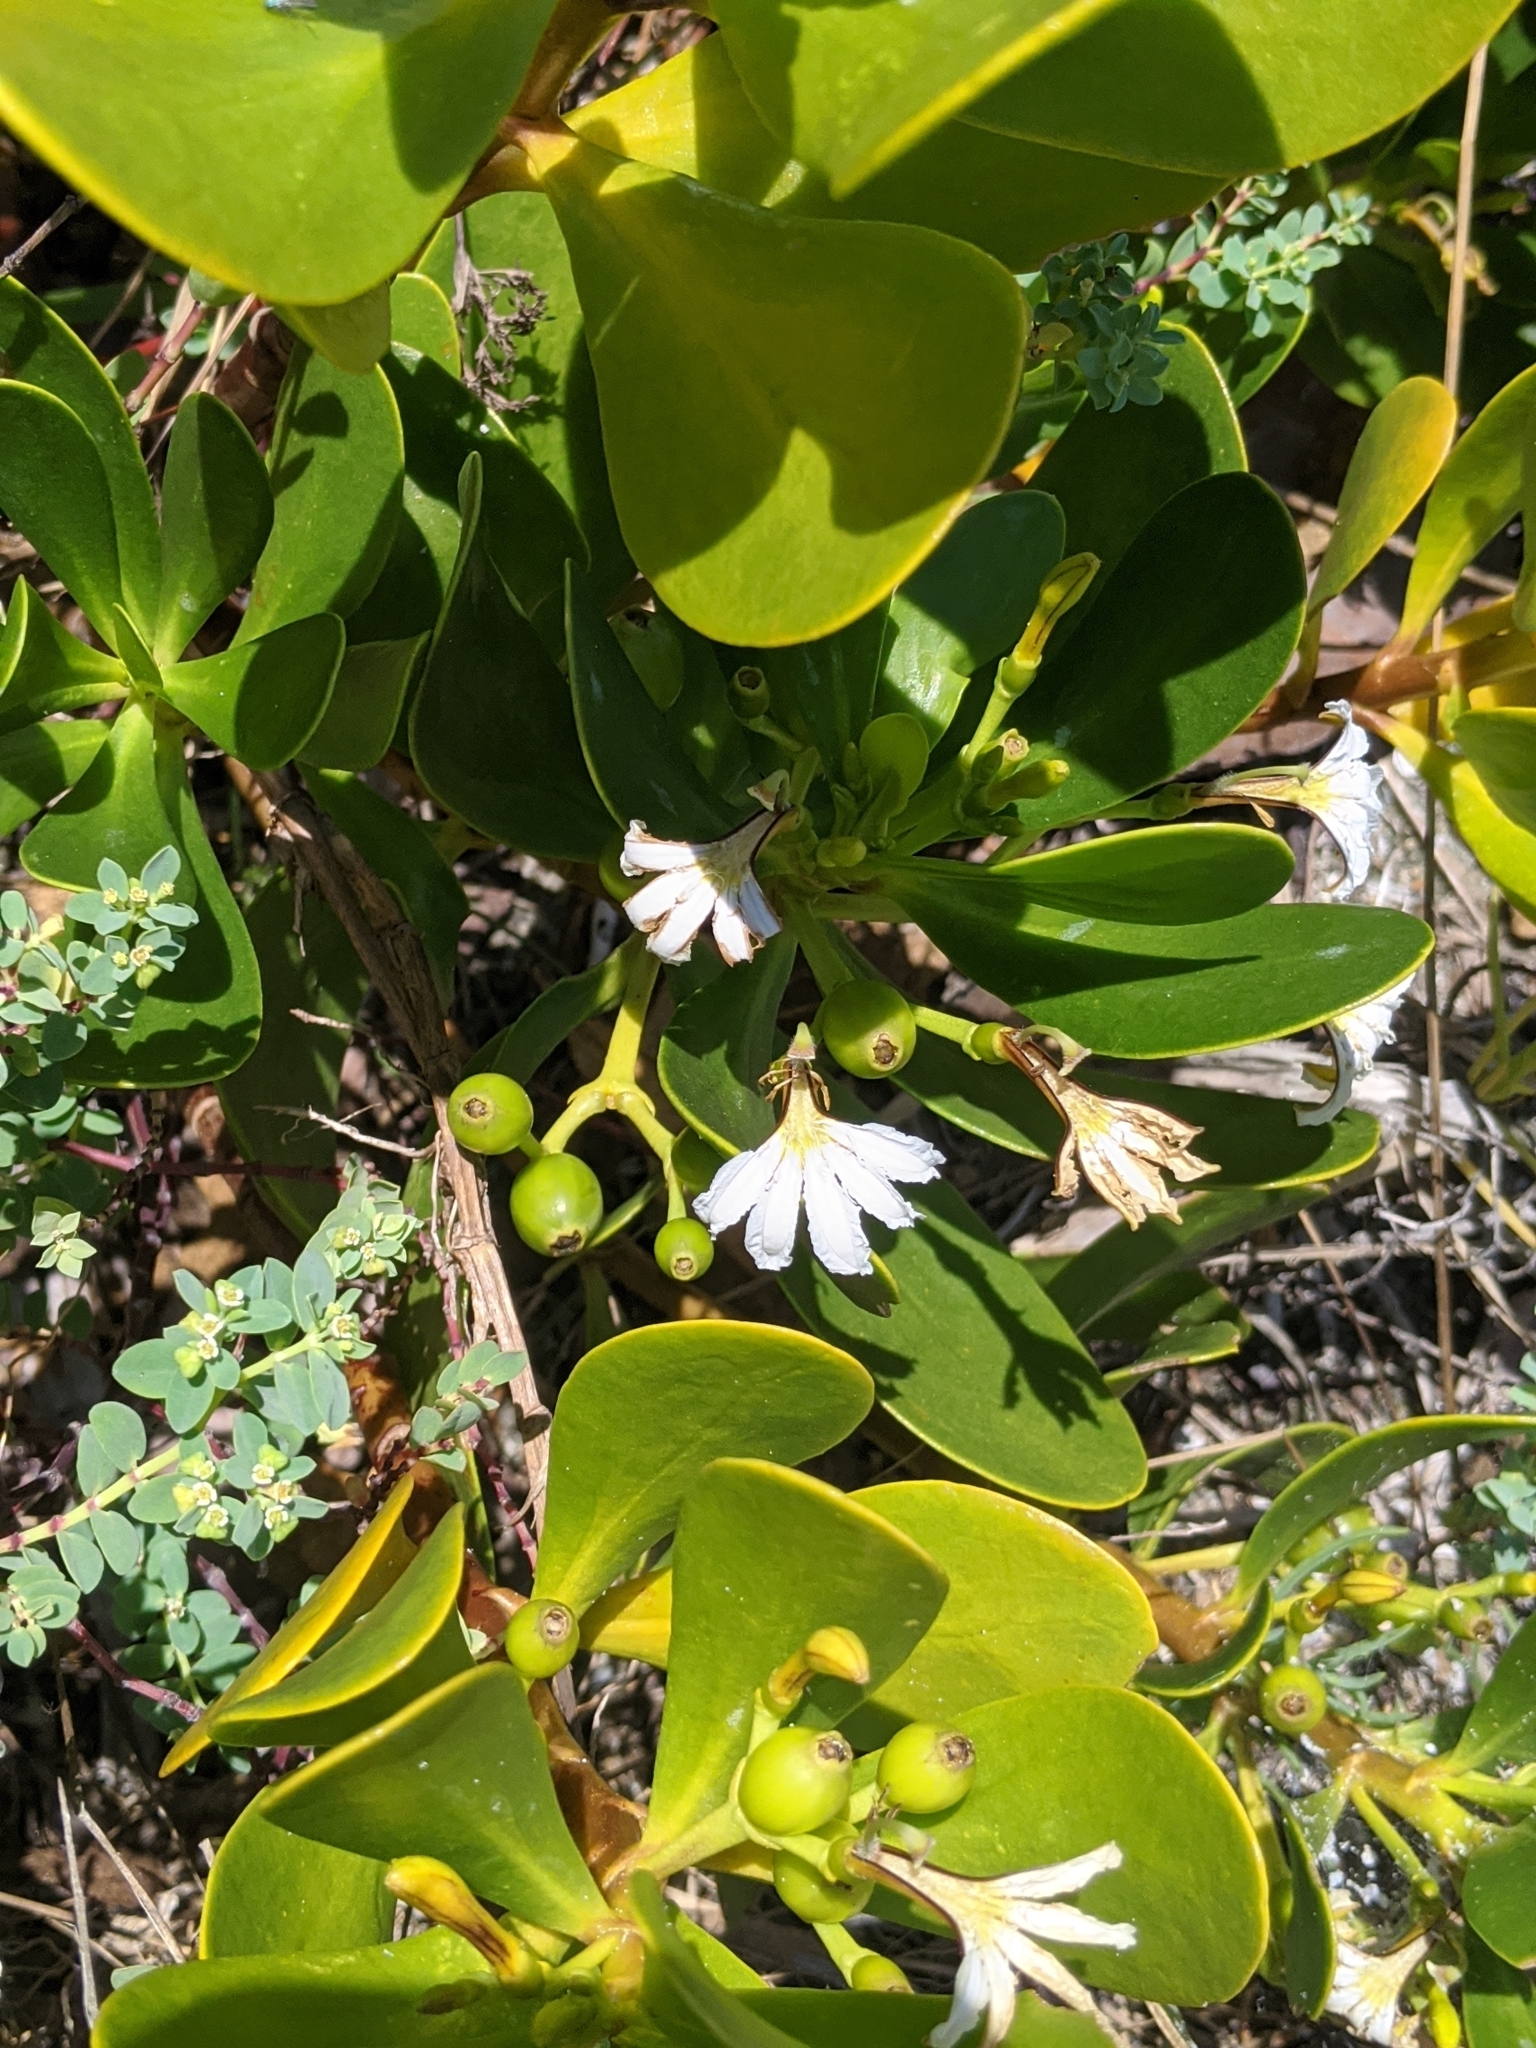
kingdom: Plantae
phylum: Tracheophyta
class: Magnoliopsida
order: Asterales
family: Goodeniaceae
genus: Scaevola
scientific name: Scaevola plumieri
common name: Gull feed
